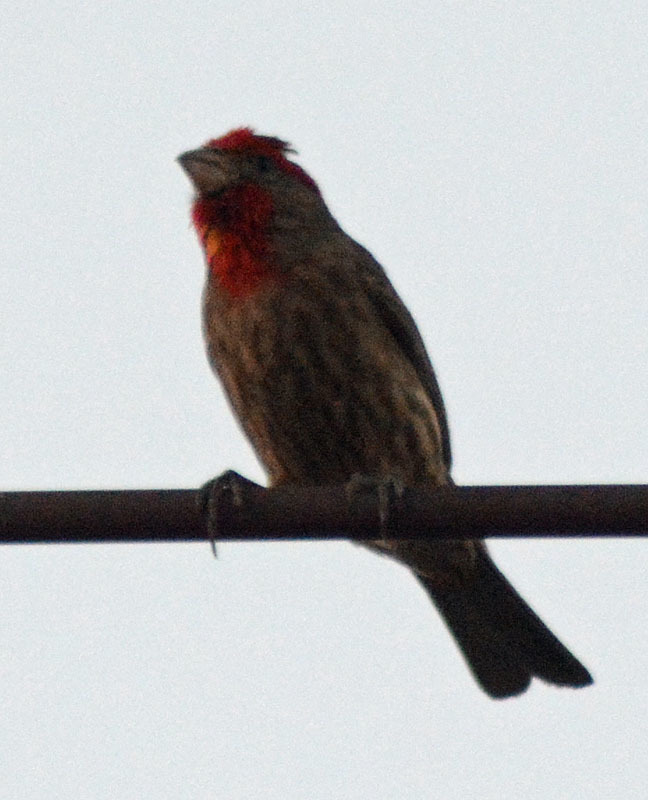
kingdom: Animalia
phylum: Chordata
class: Aves
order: Passeriformes
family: Fringillidae
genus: Haemorhous
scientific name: Haemorhous mexicanus
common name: House finch
